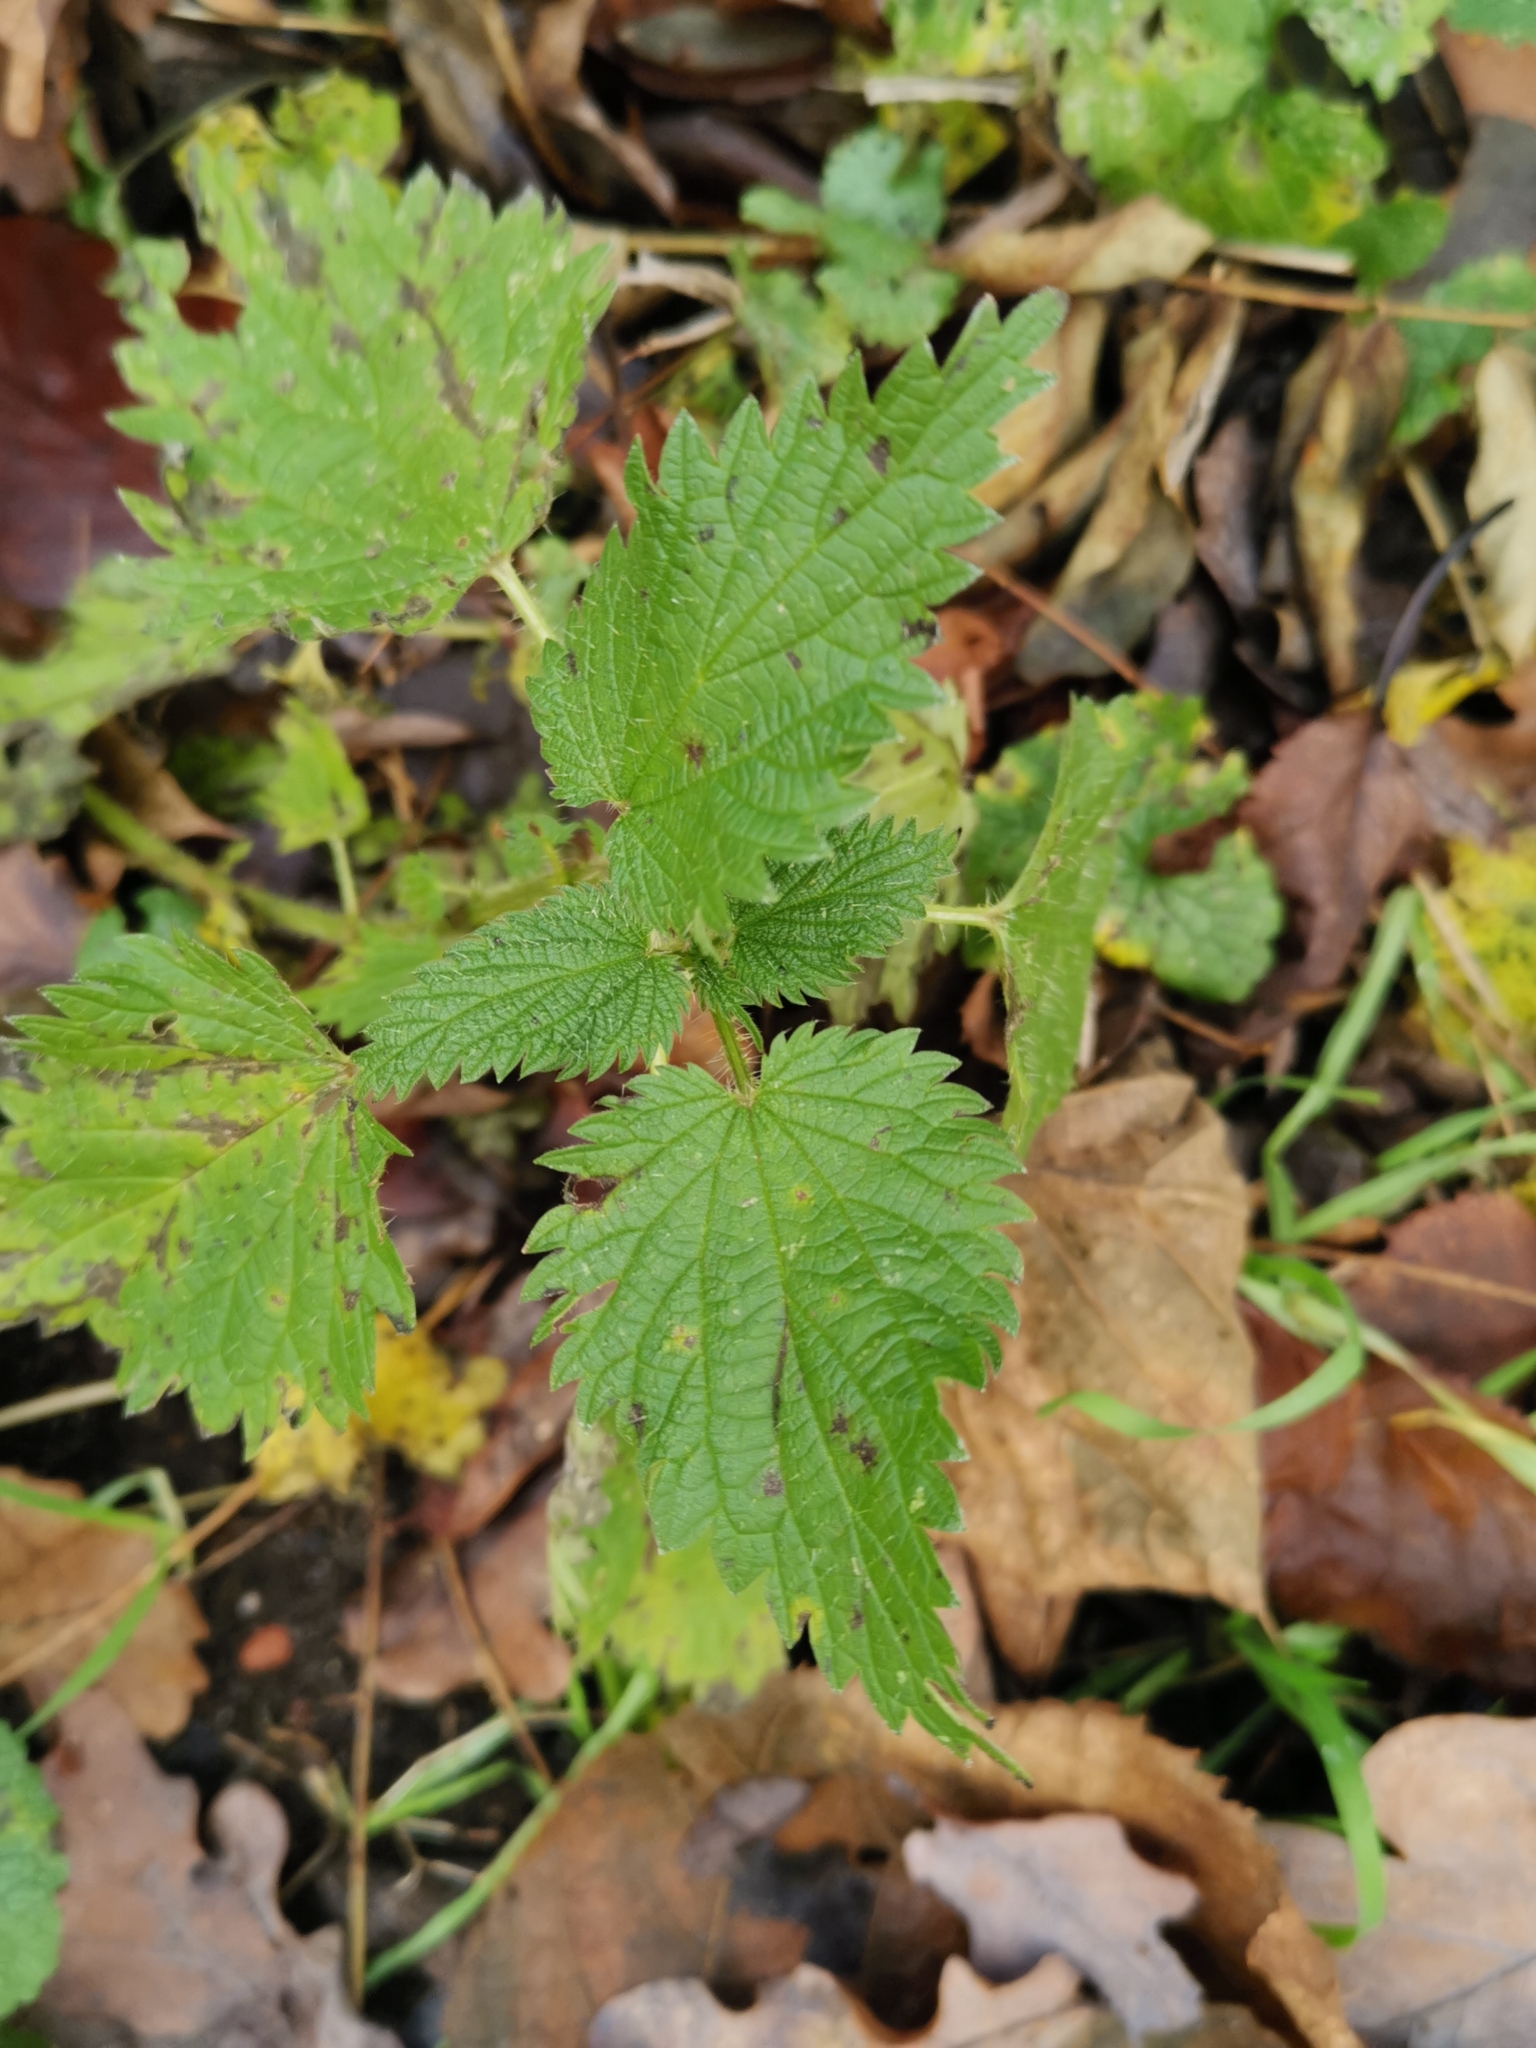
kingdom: Plantae
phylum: Tracheophyta
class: Magnoliopsida
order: Rosales
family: Urticaceae
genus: Urtica
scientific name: Urtica dioica
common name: Common nettle
